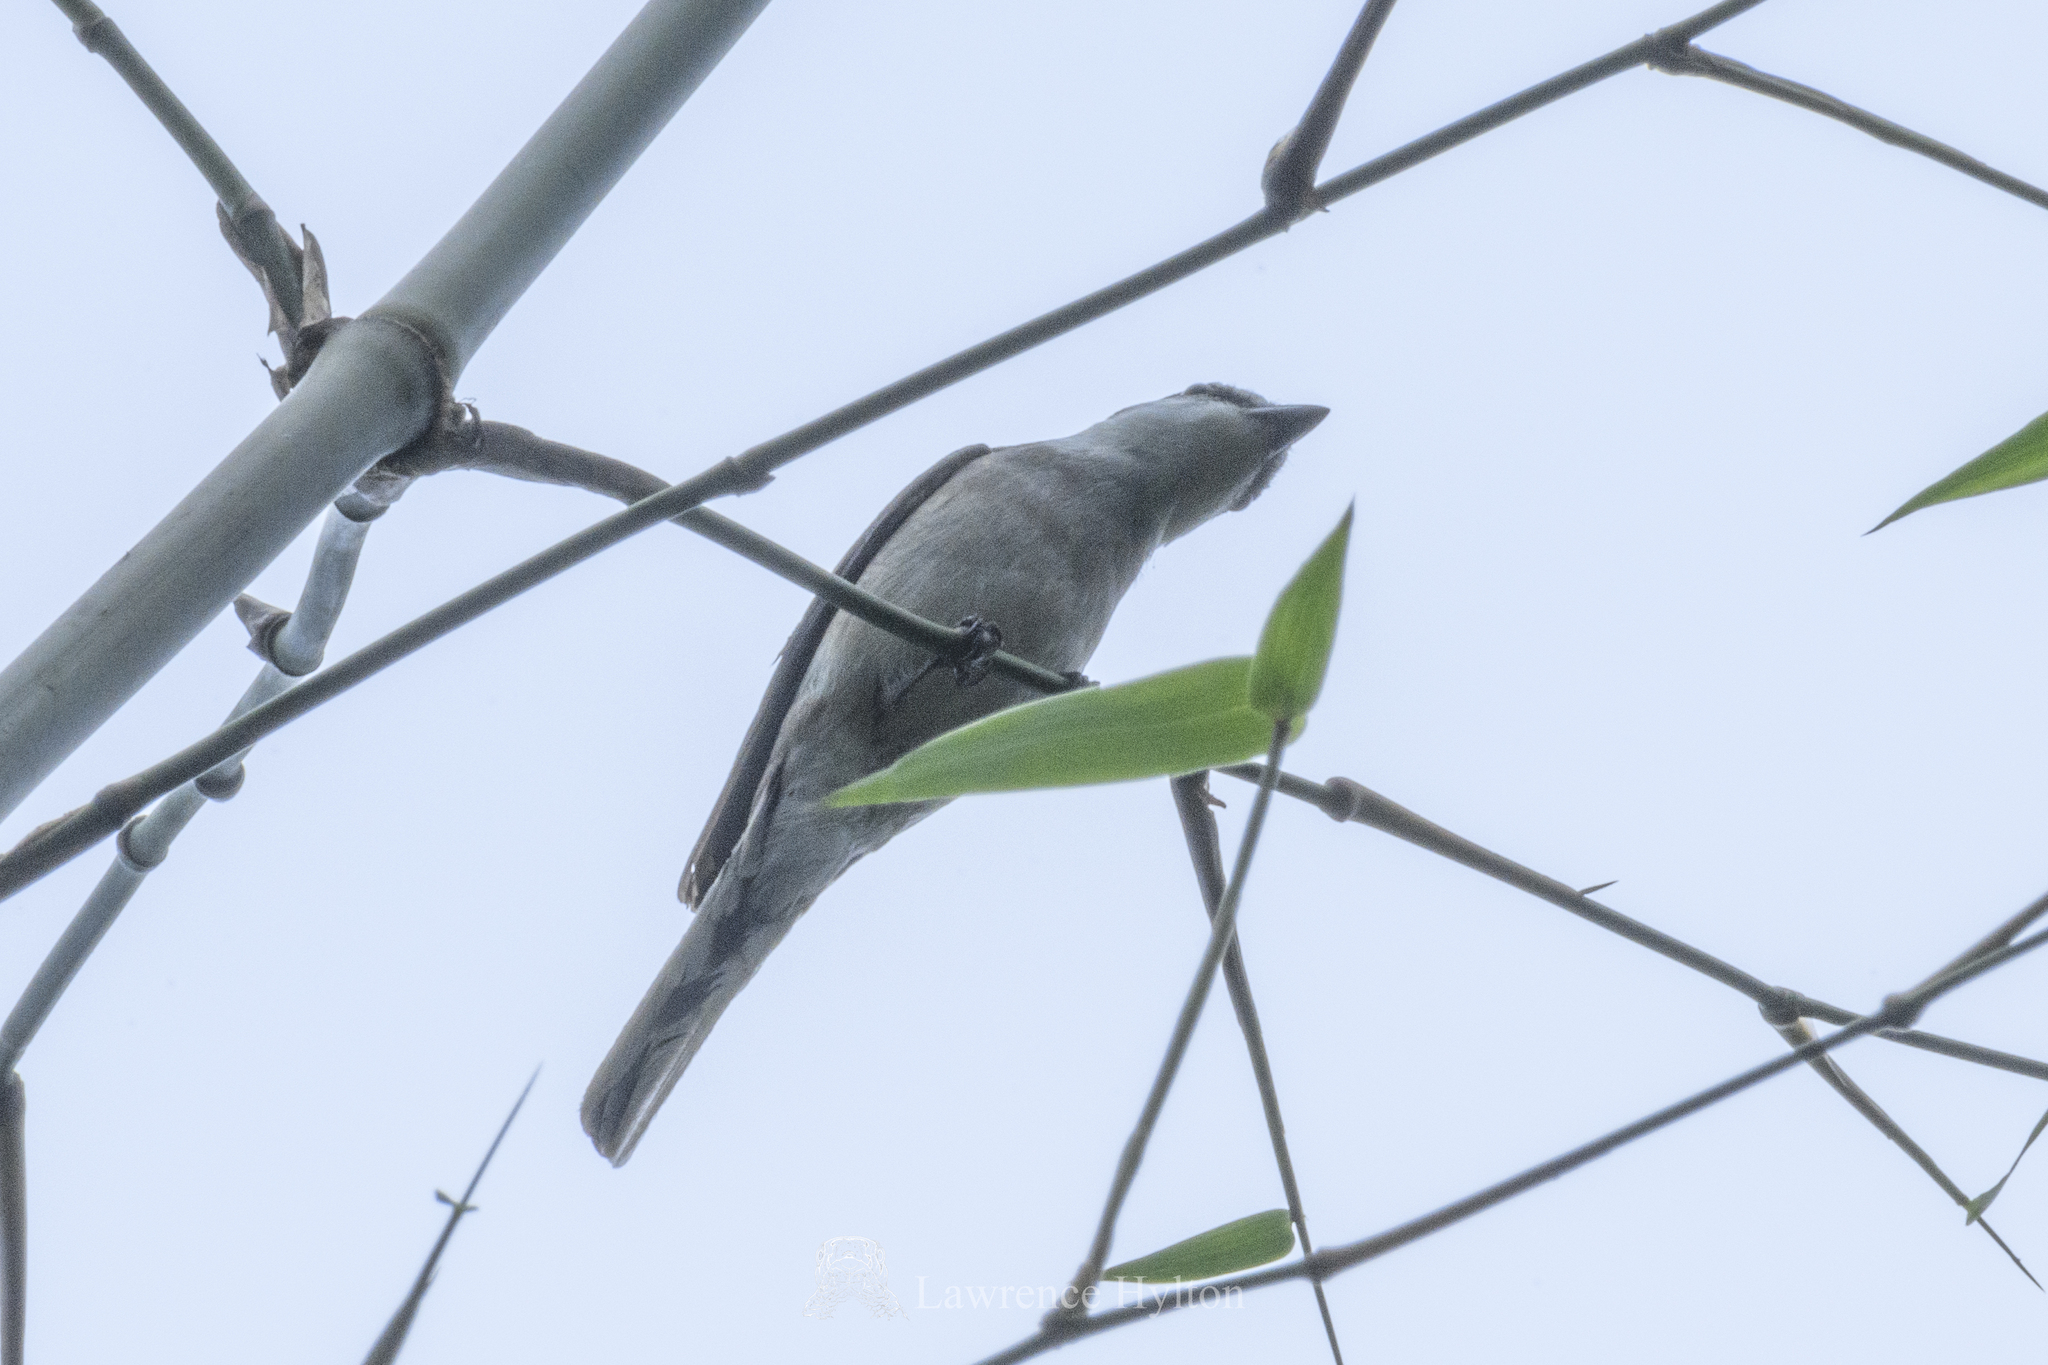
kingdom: Animalia
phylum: Chordata
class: Aves
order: Passeriformes
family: Campephagidae
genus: Pericrocotus
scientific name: Pericrocotus cantonensis
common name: Swinhoe's minivet
